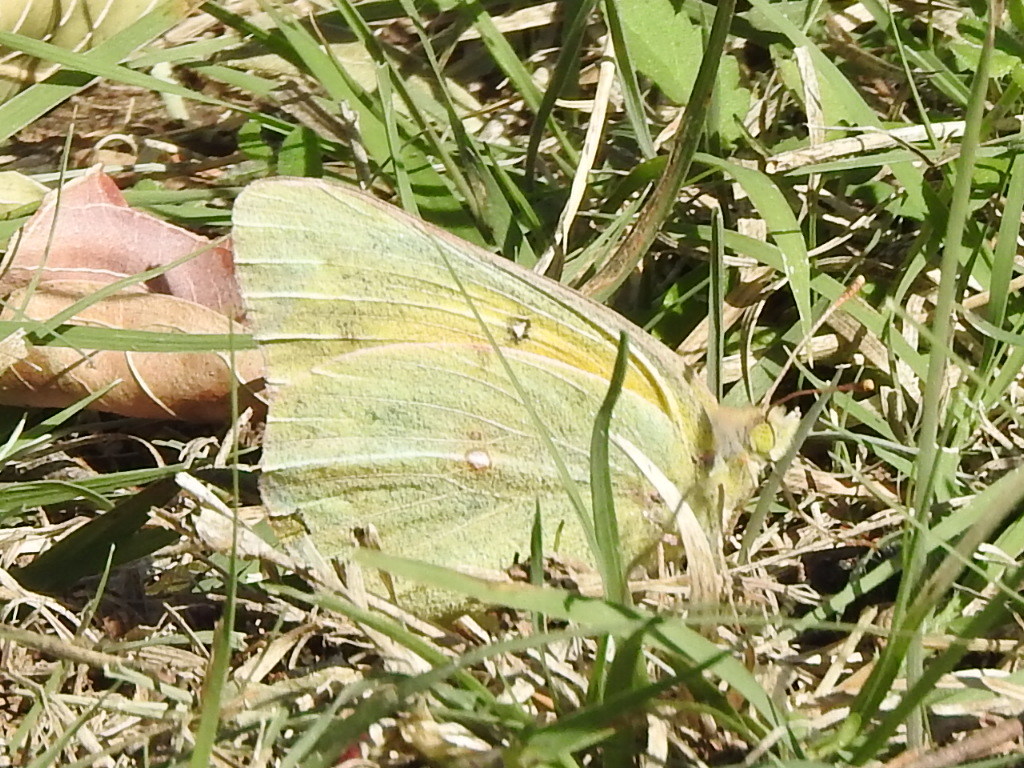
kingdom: Animalia
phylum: Arthropoda
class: Insecta
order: Lepidoptera
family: Pieridae
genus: Colias
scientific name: Colias eurytheme
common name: Alfalfa butterfly
